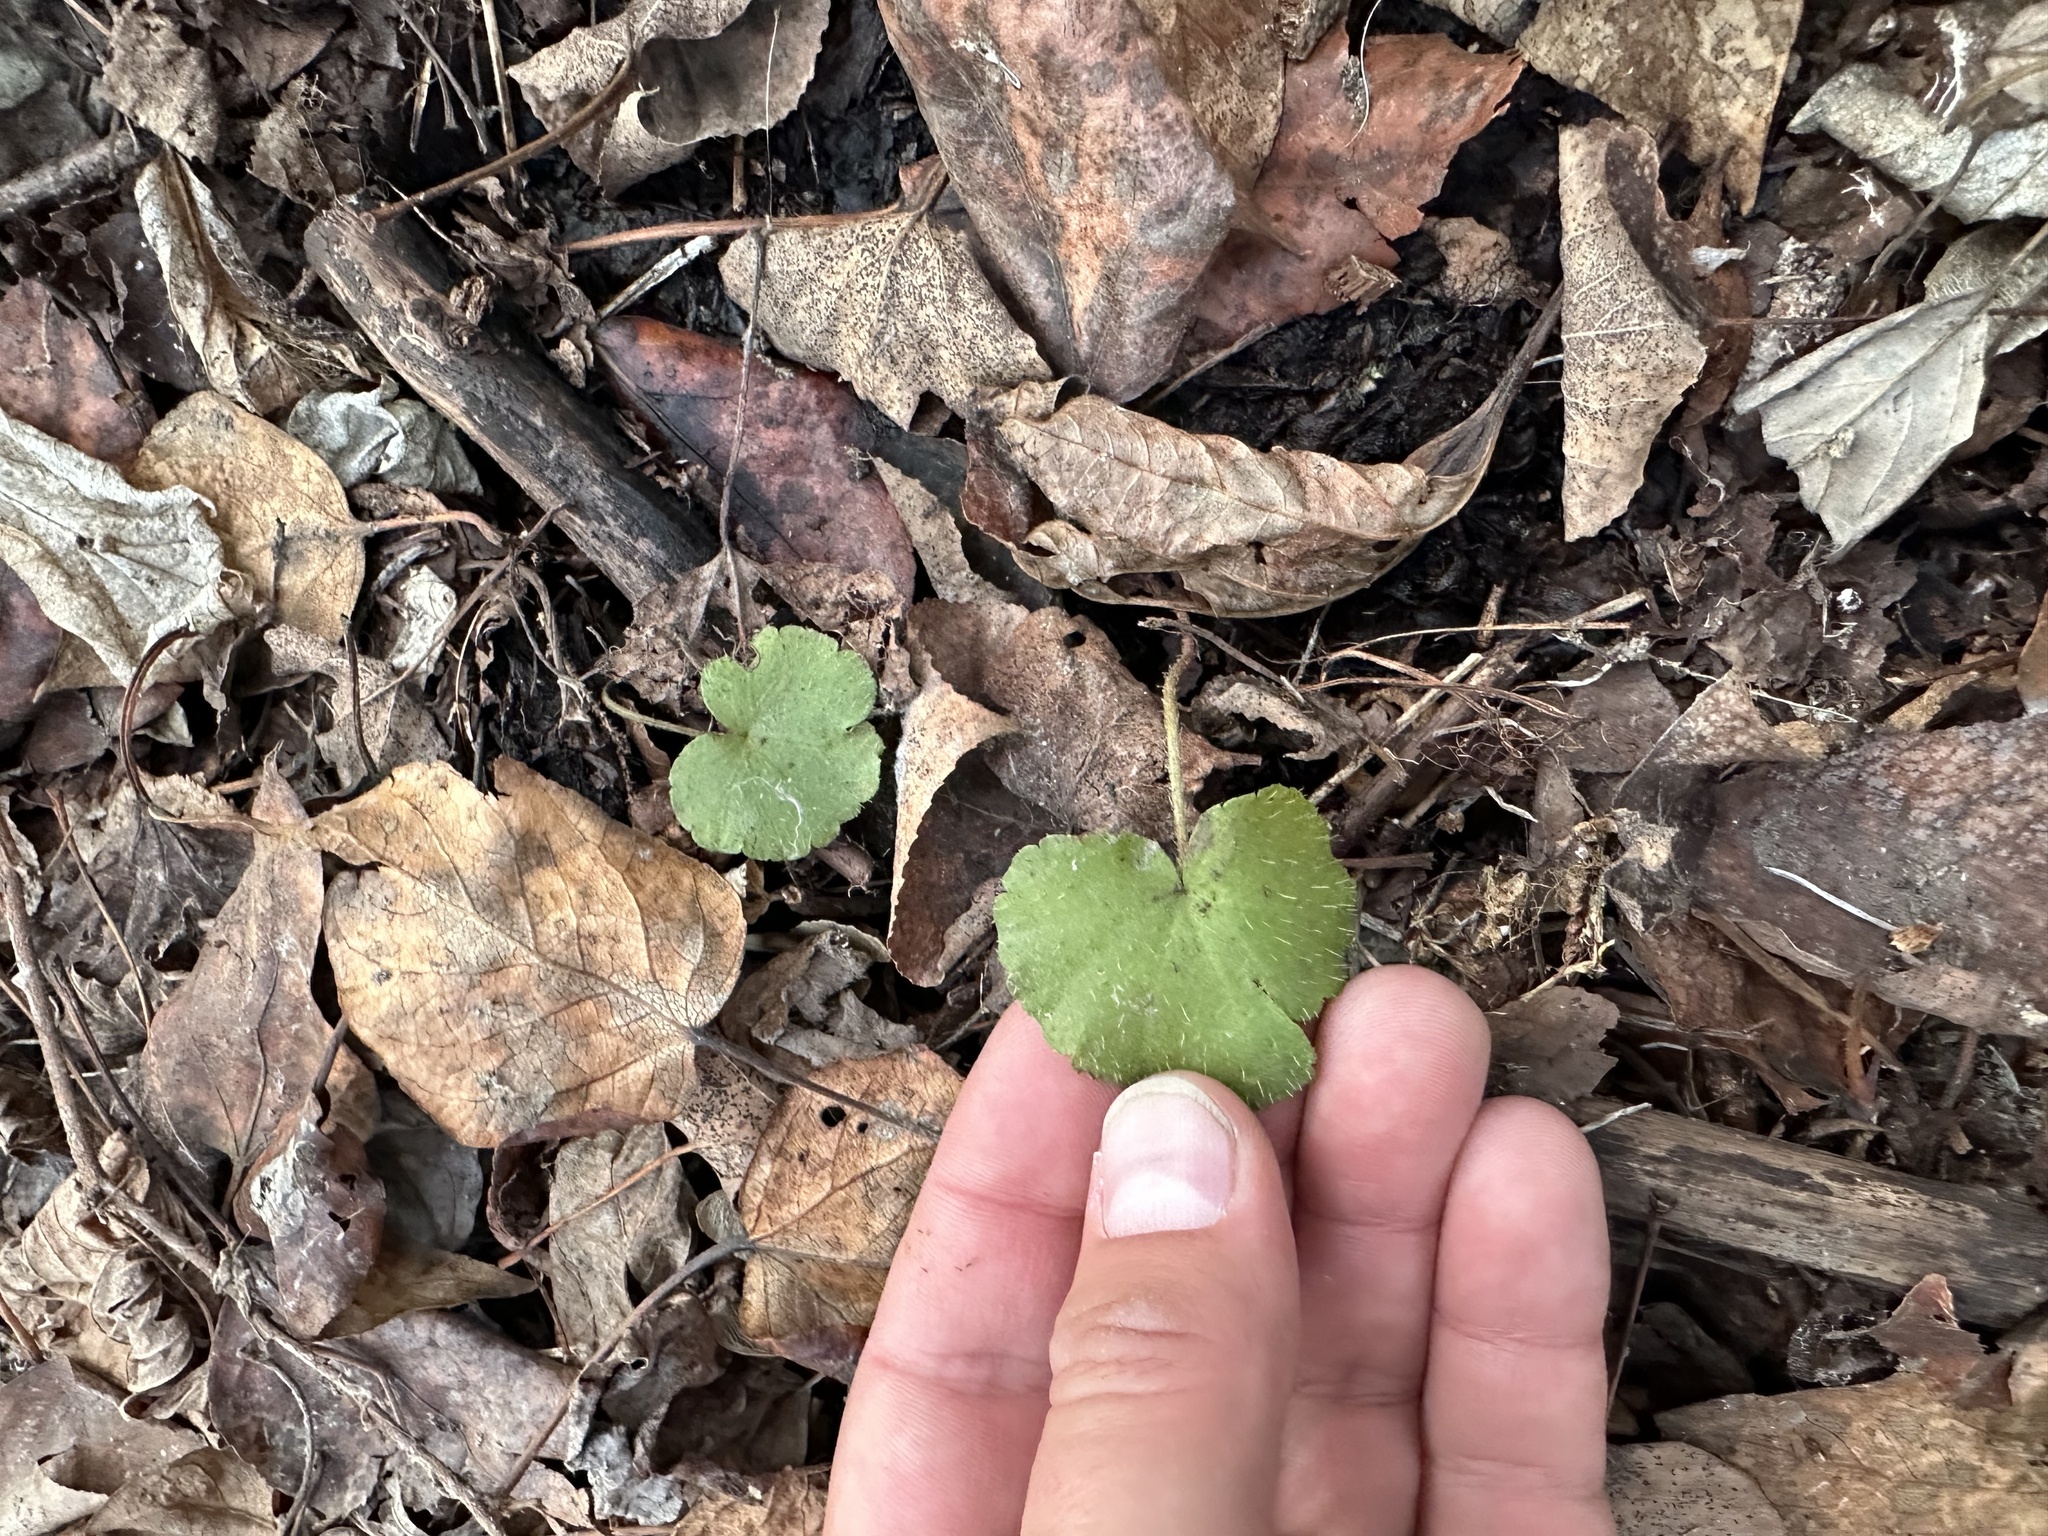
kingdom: Plantae
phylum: Tracheophyta
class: Magnoliopsida
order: Saxifragales
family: Saxifragaceae
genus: Mitella
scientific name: Mitella nuda
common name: Bare-stemmed bishop's-cap
